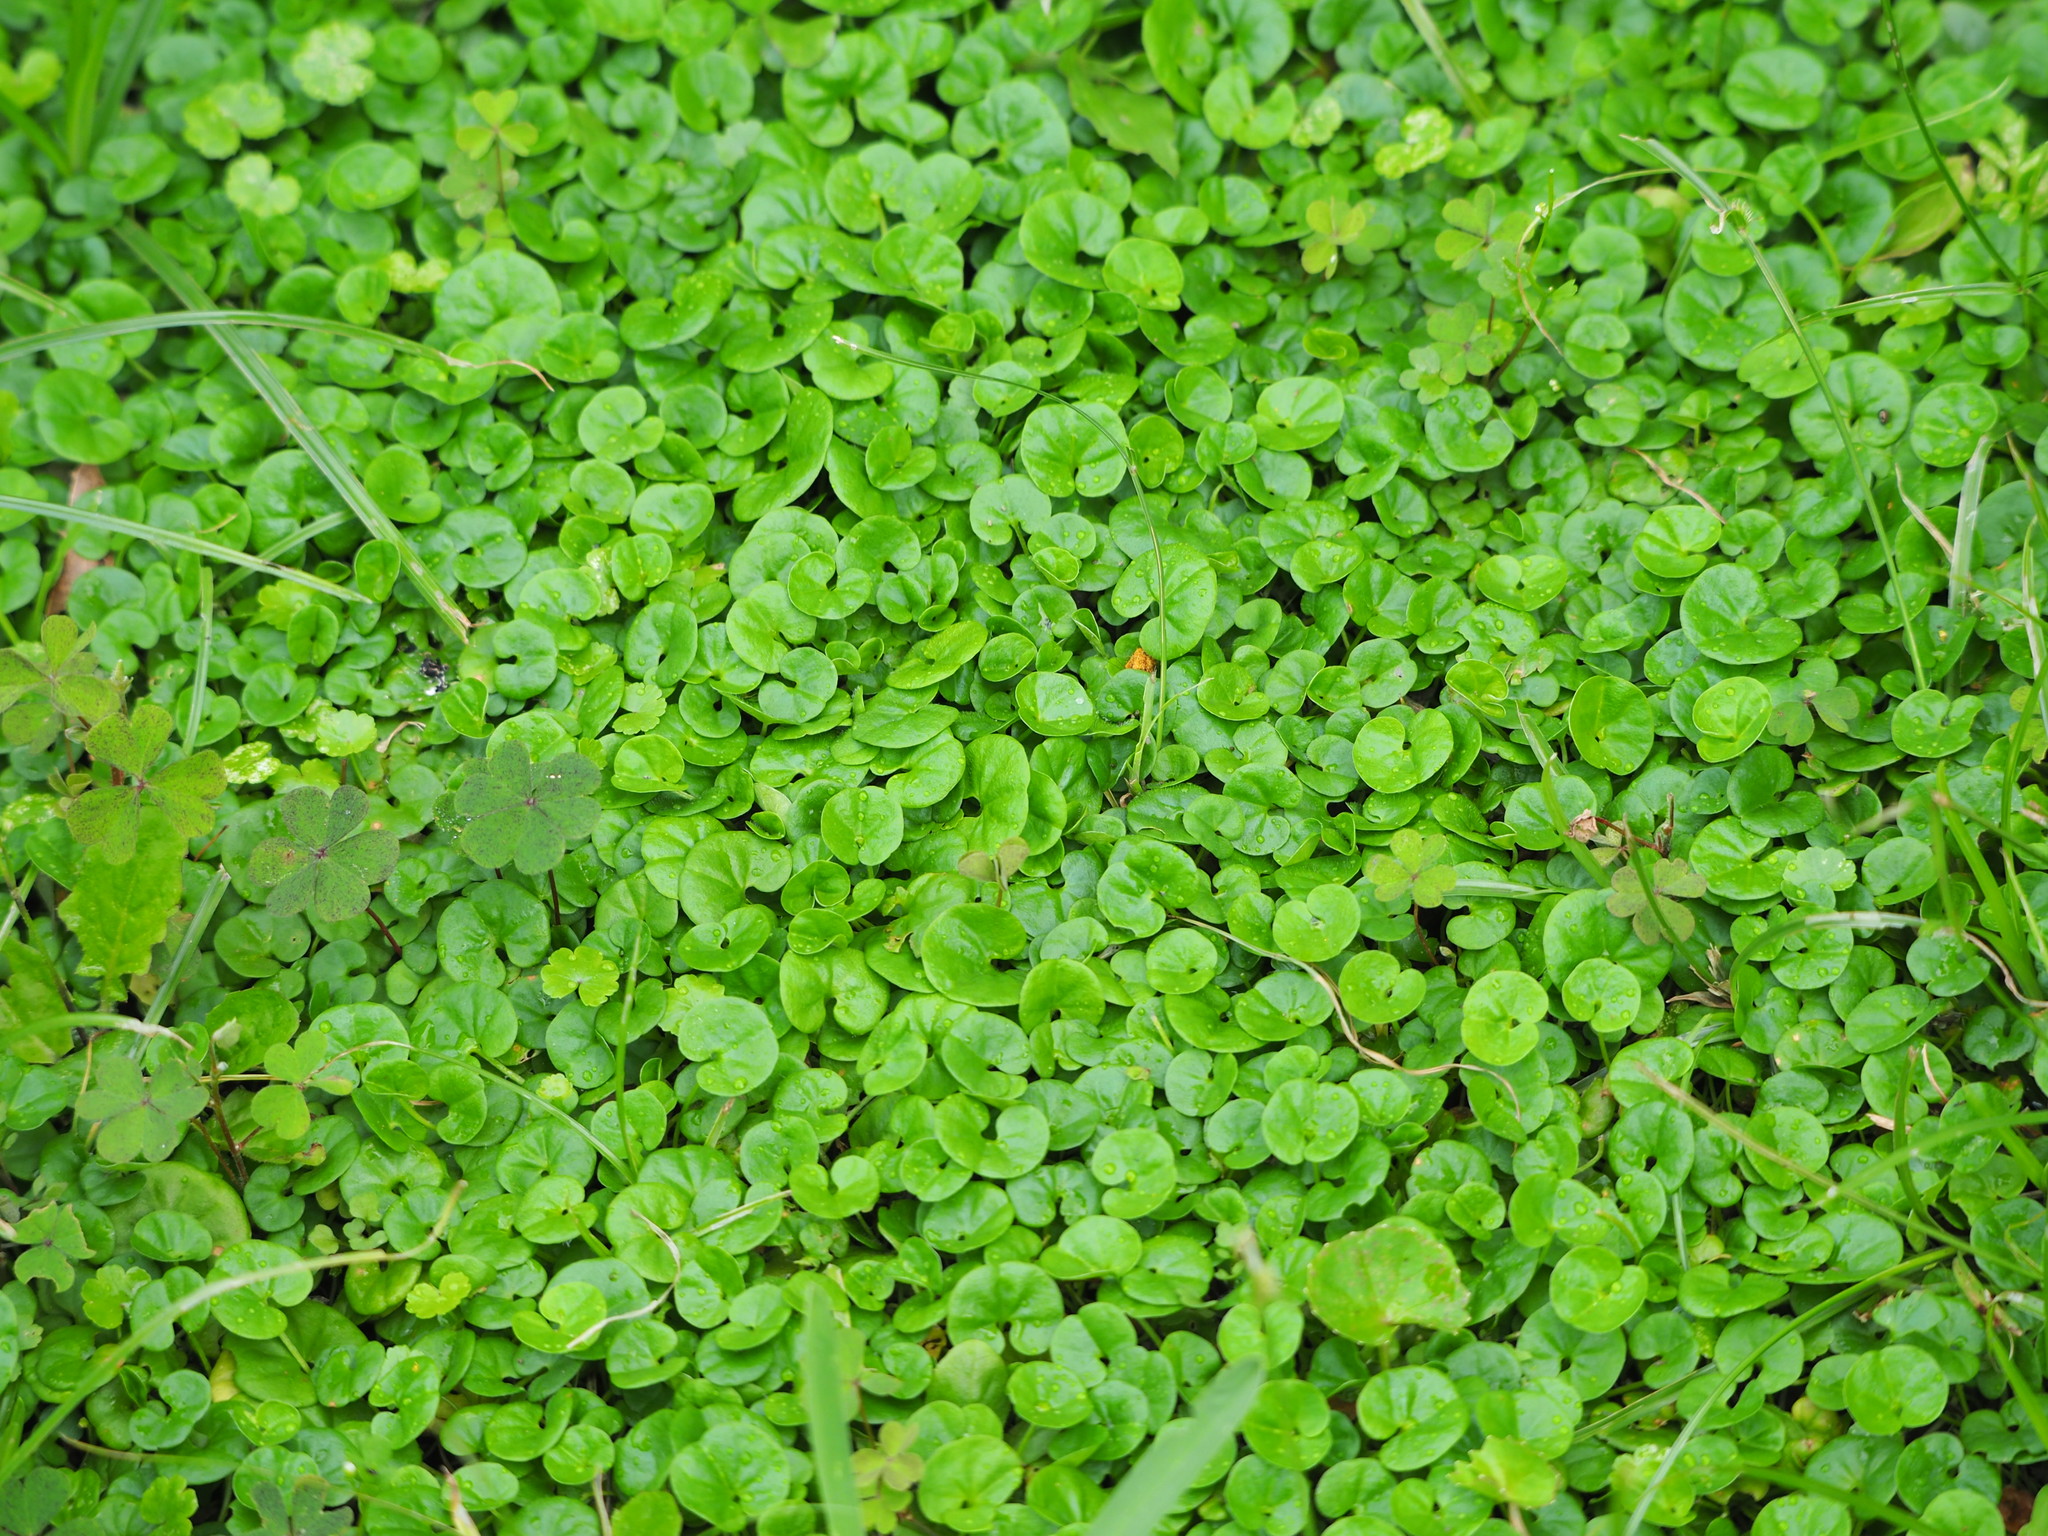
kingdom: Plantae
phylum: Tracheophyta
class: Magnoliopsida
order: Solanales
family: Convolvulaceae
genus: Dichondra
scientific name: Dichondra micrantha
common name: Kidneyweed
